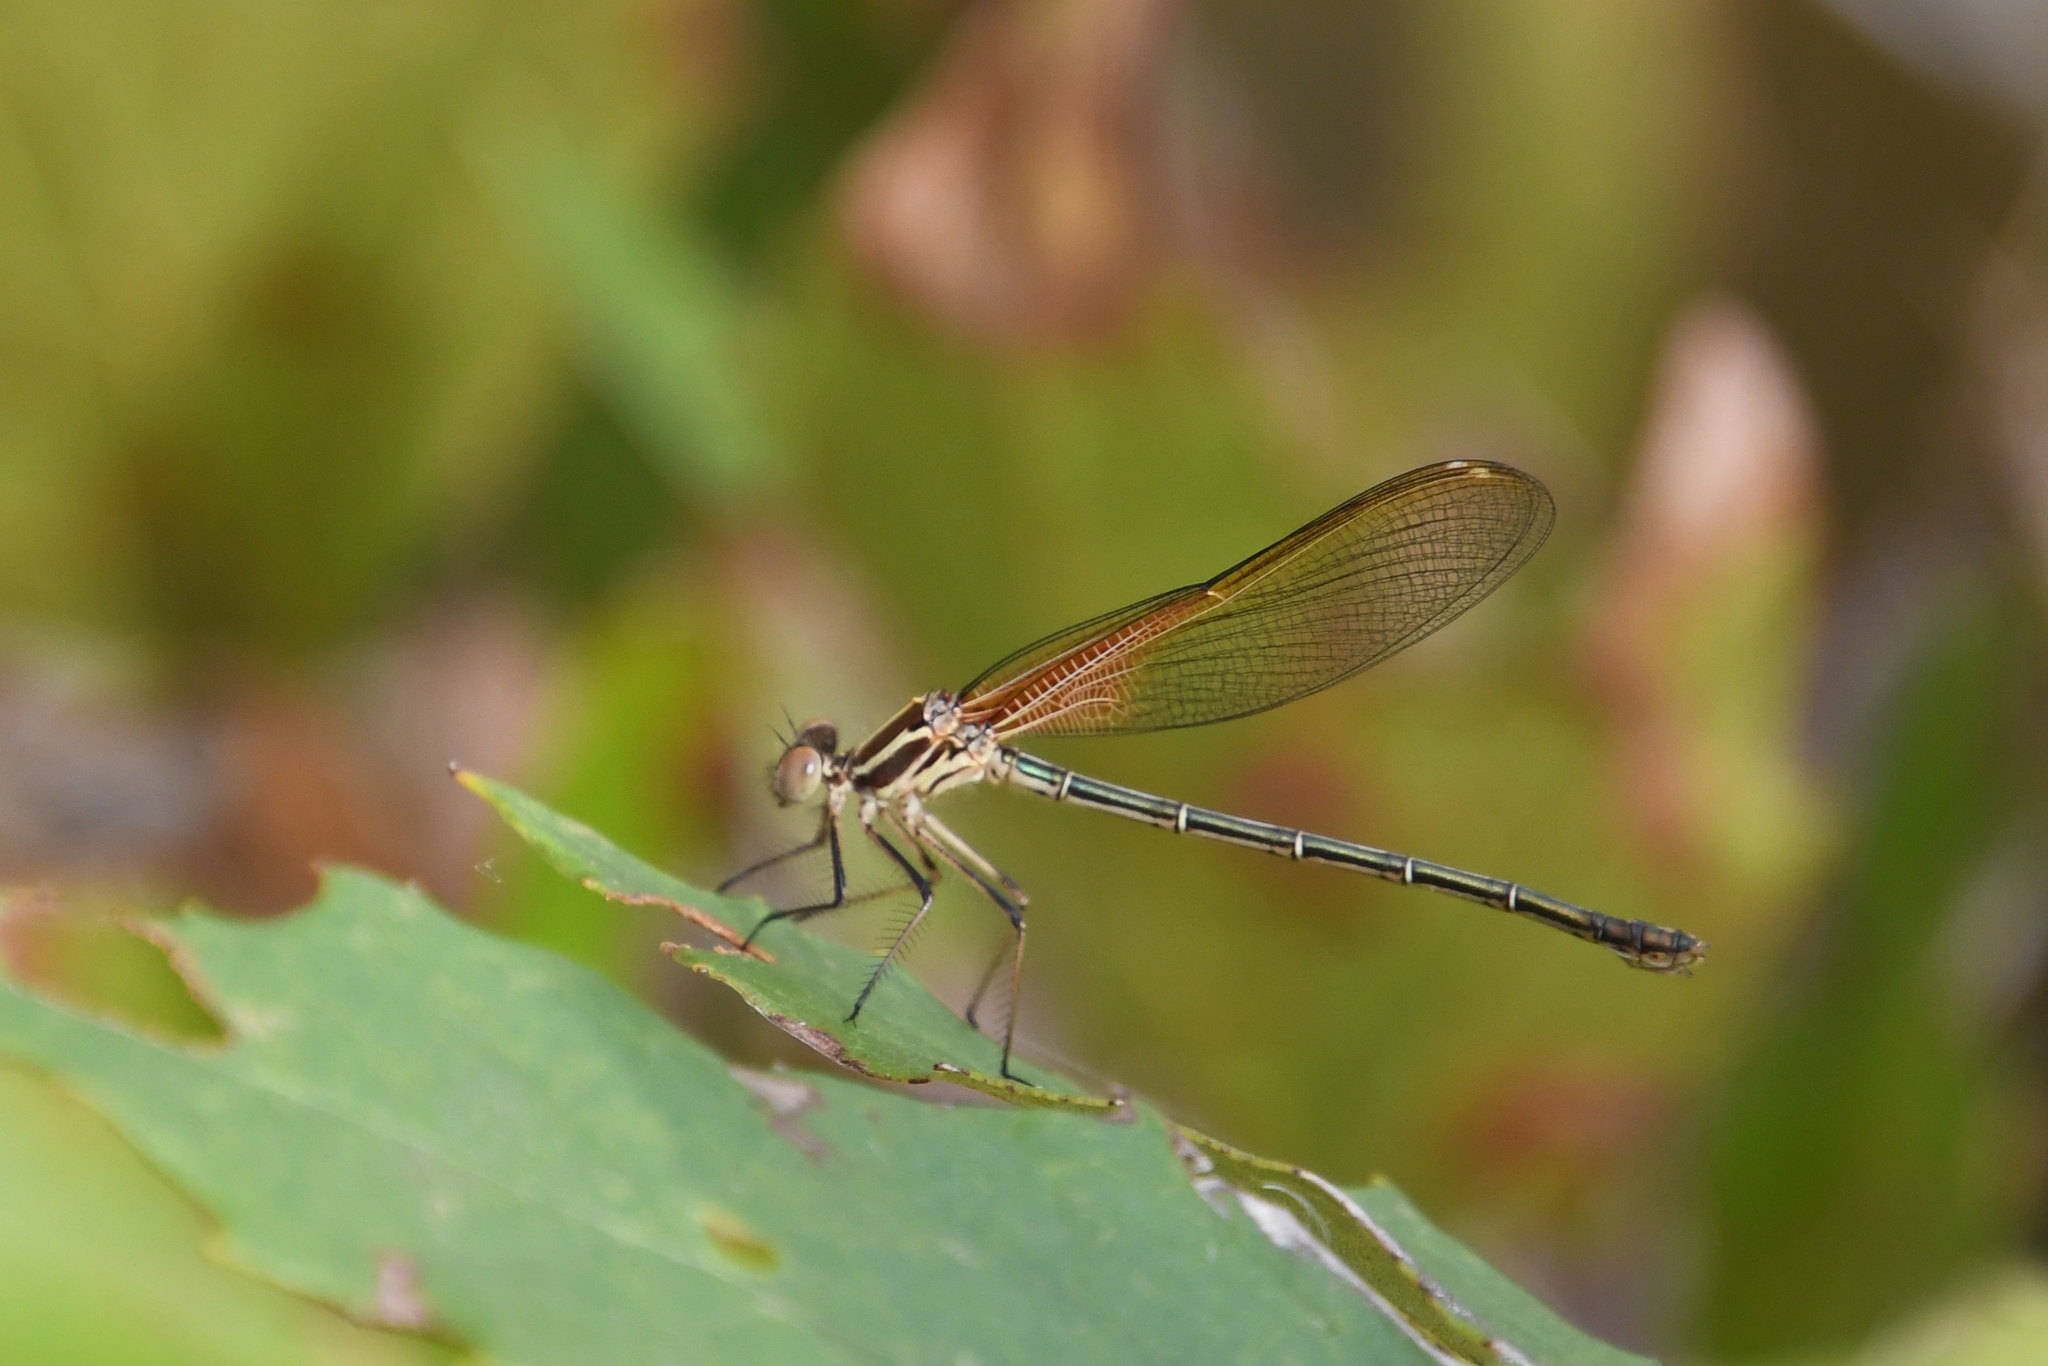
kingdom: Animalia
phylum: Arthropoda
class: Insecta
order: Odonata
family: Calopterygidae
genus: Hetaerina
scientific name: Hetaerina americana
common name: American rubyspot
